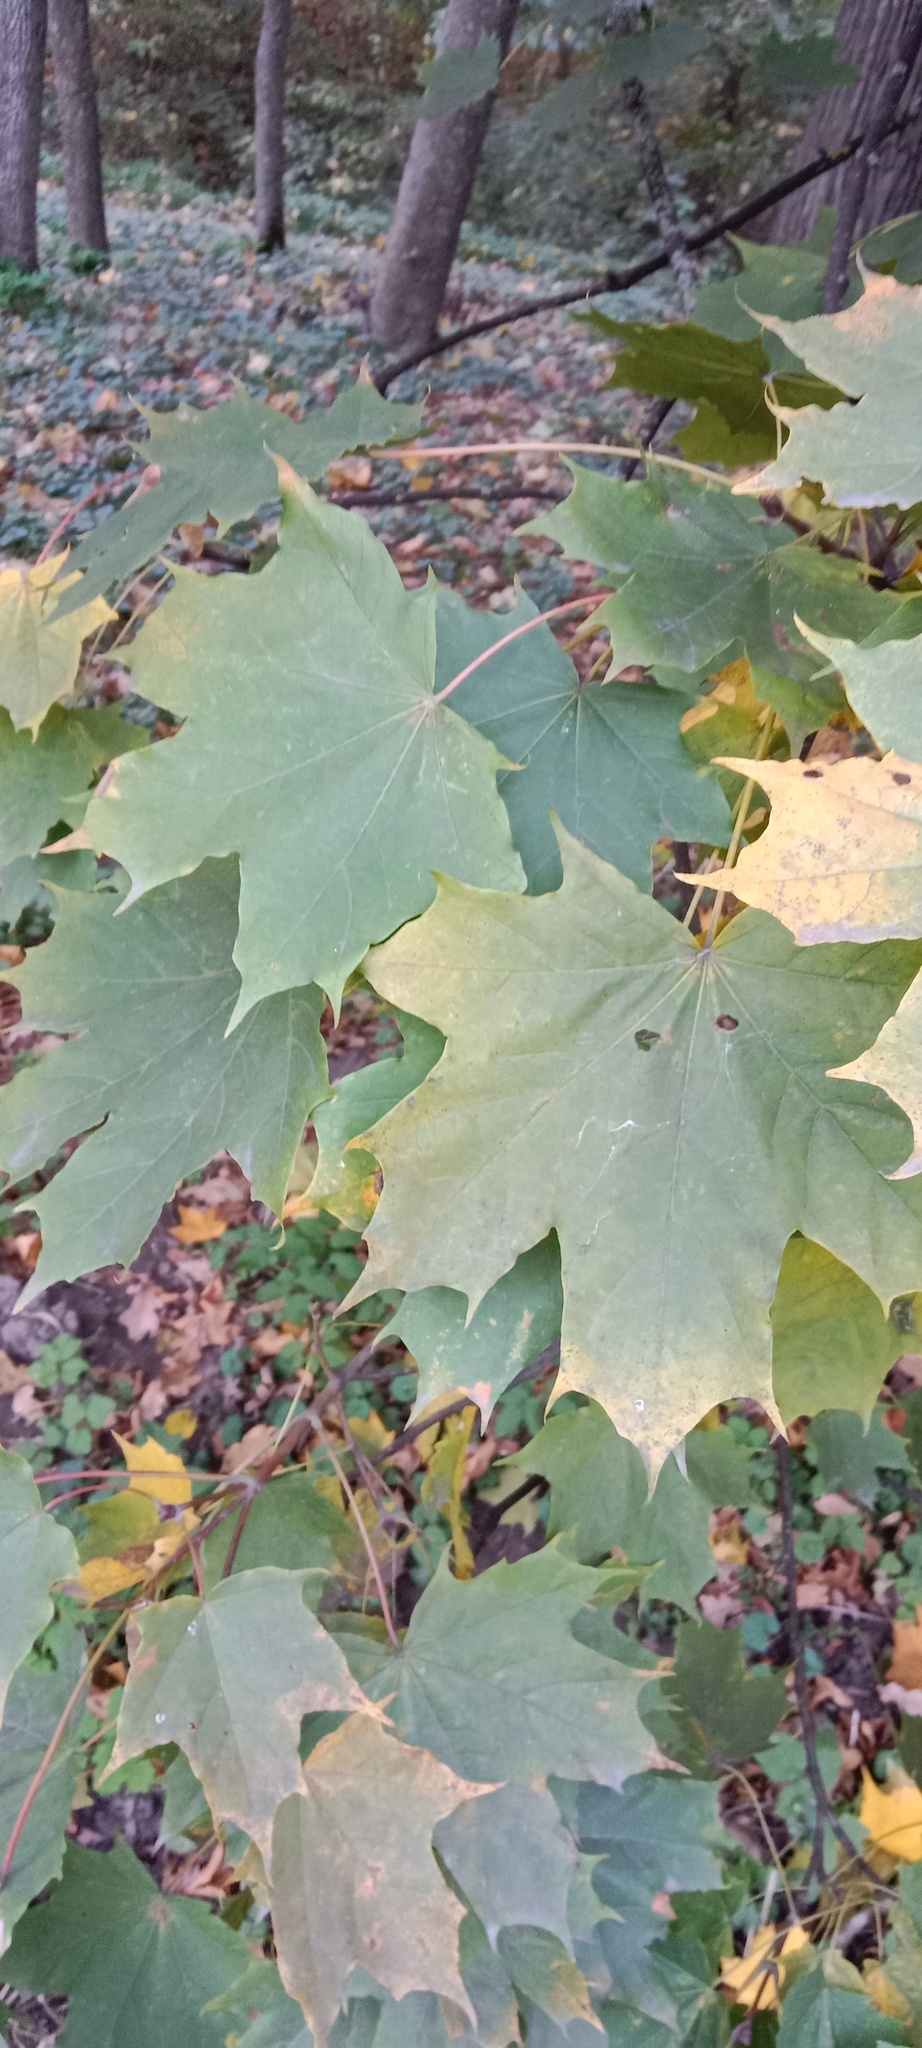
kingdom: Plantae
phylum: Tracheophyta
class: Magnoliopsida
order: Sapindales
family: Sapindaceae
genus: Acer
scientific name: Acer platanoides
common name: Norway maple
